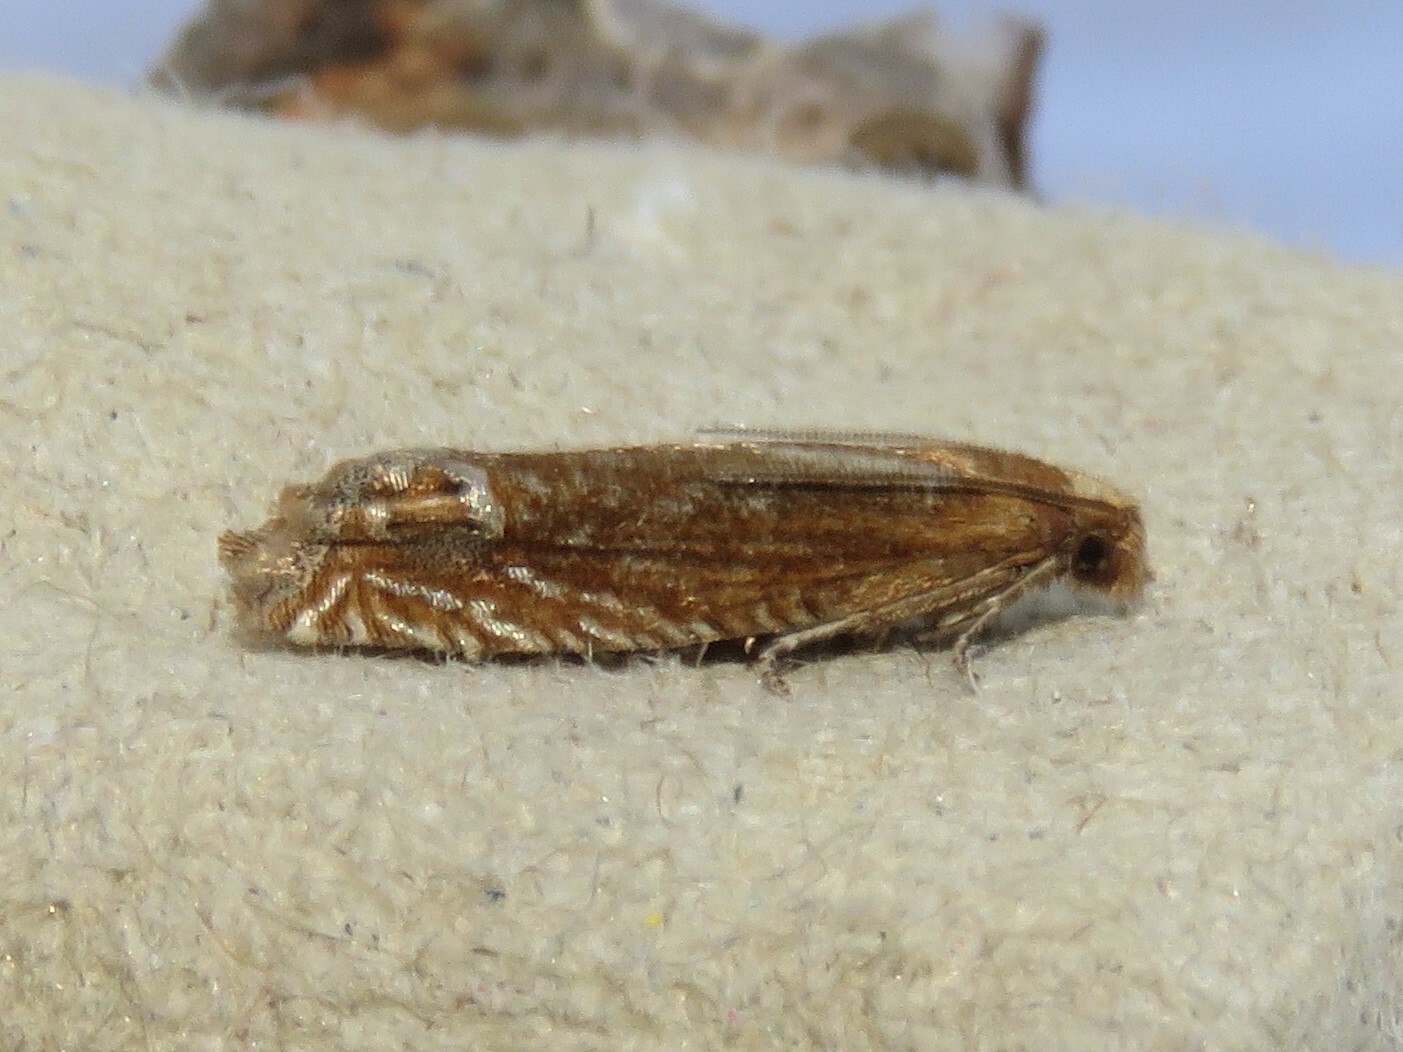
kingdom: Animalia
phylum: Arthropoda
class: Insecta
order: Lepidoptera
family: Tortricidae
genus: Pelochrista
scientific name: Pelochrista cataclystiana
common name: Goldenrod pelochrista moth
